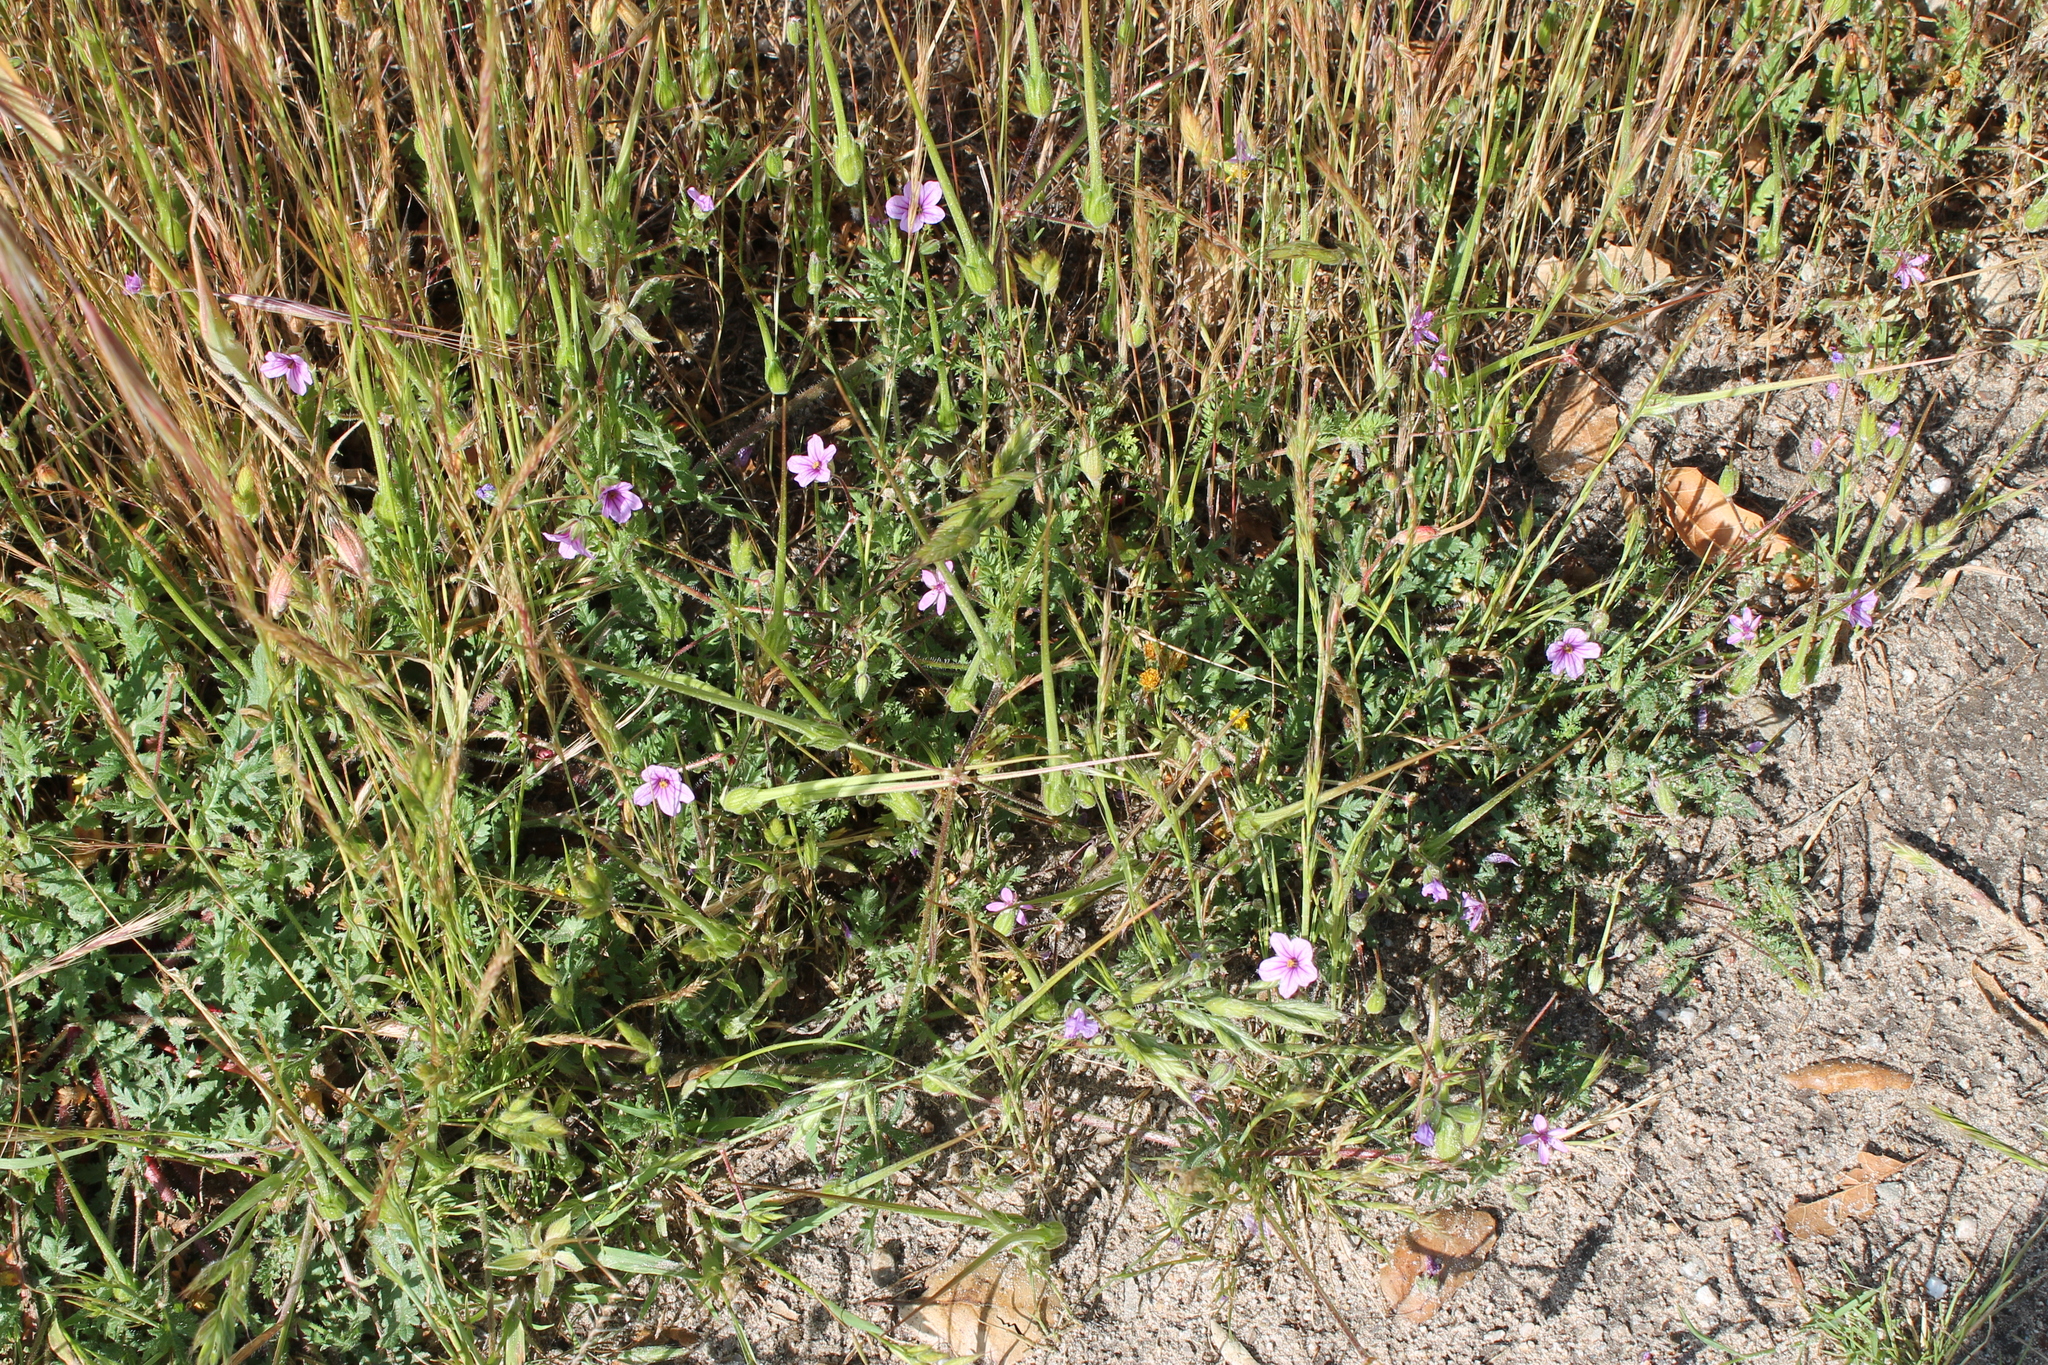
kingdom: Plantae
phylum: Tracheophyta
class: Magnoliopsida
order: Geraniales
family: Geraniaceae
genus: Erodium
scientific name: Erodium botrys
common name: Mediterranean stork's-bill
